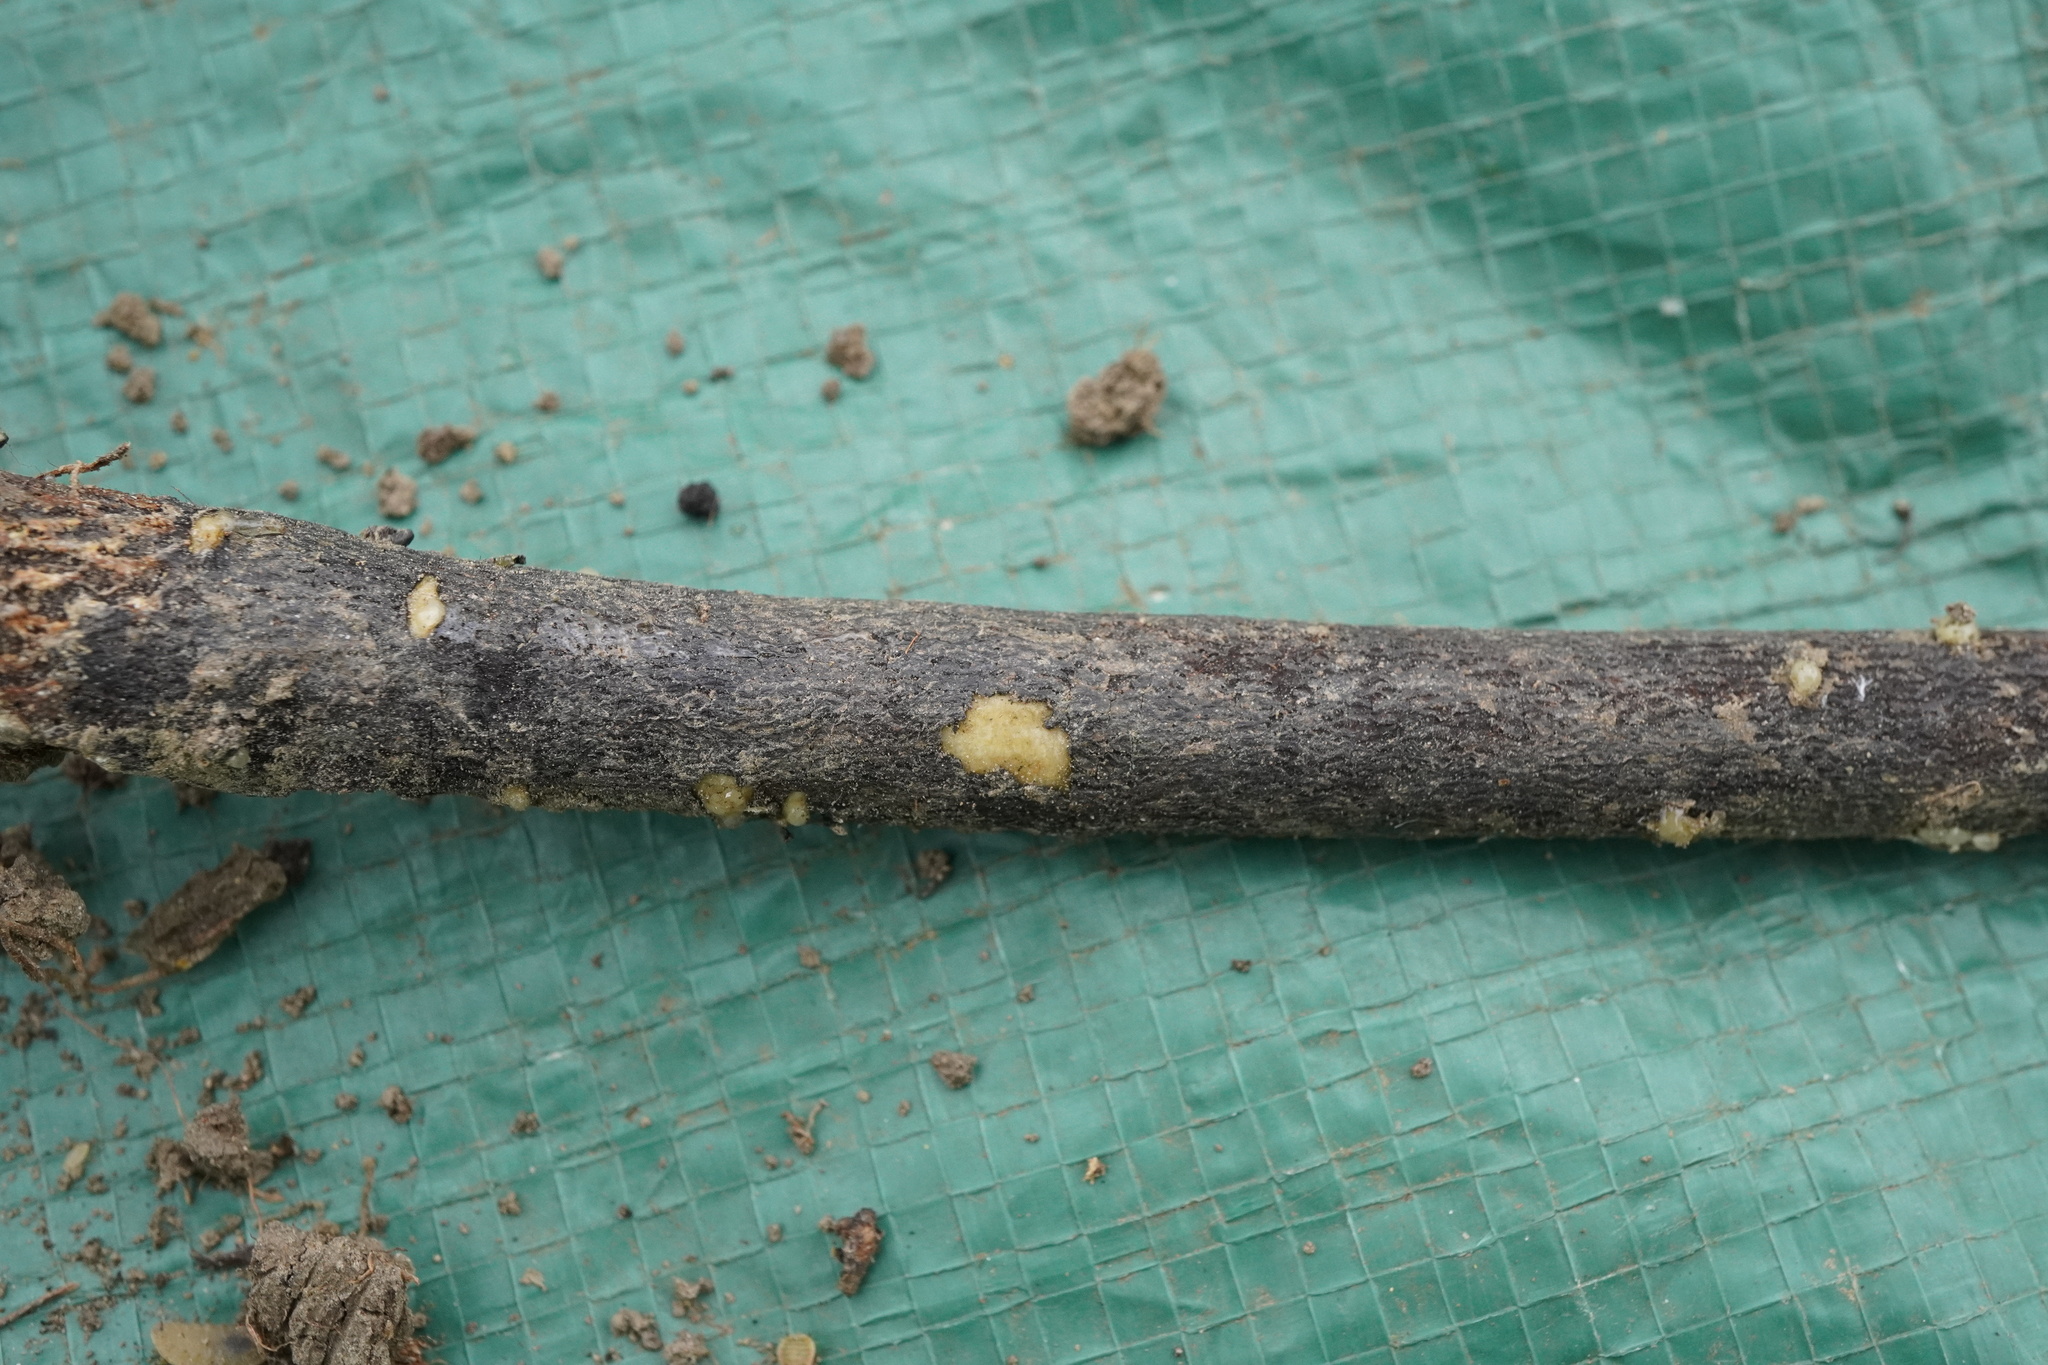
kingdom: Plantae
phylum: Tracheophyta
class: Magnoliopsida
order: Apiales
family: Apiaceae
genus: Cervaria
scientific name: Cervaria rivini
